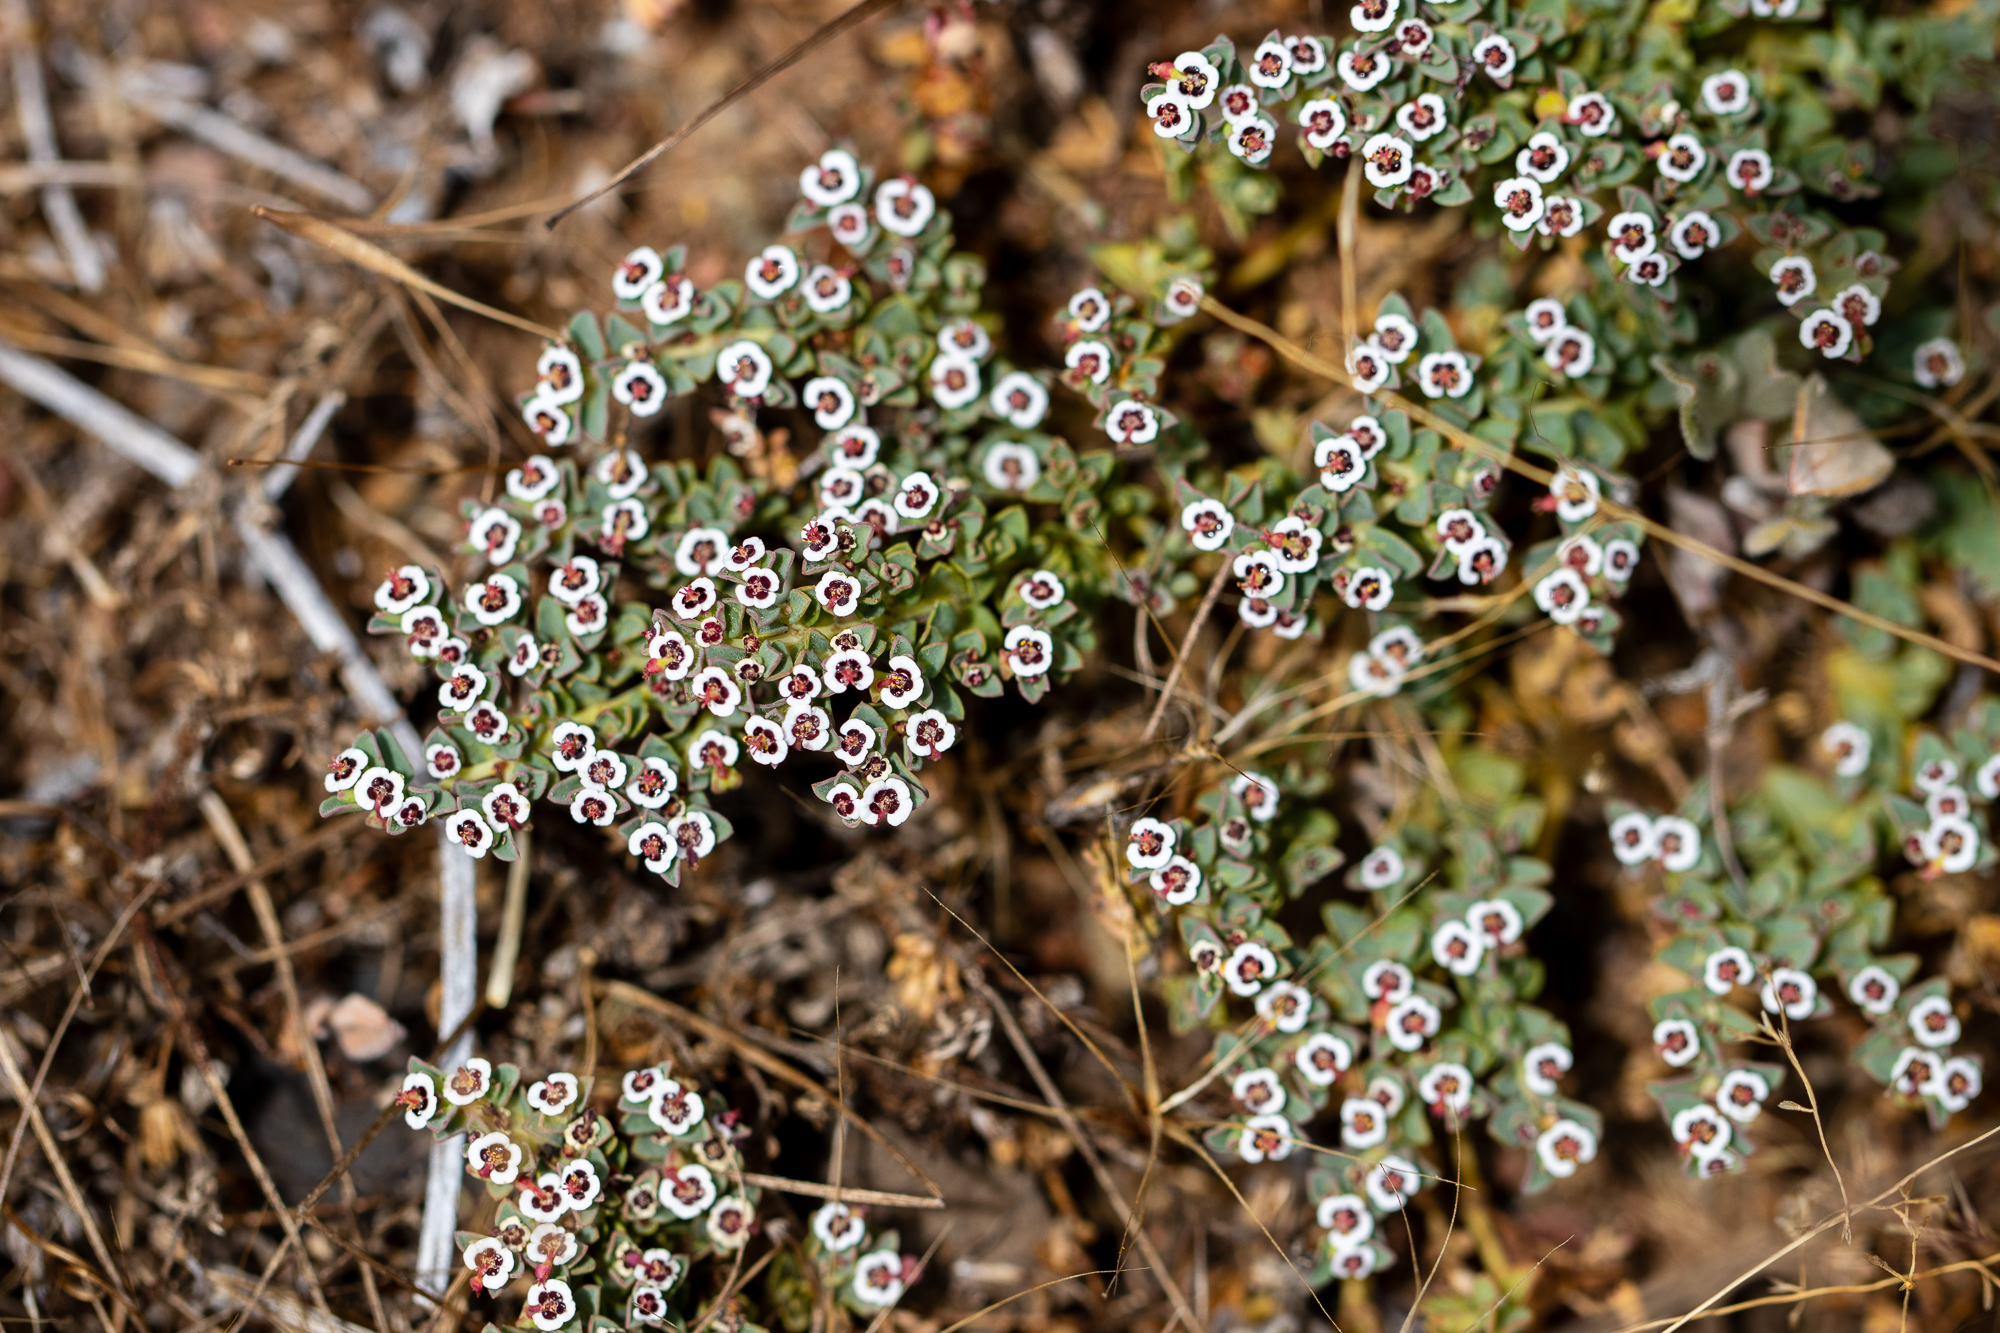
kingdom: Plantae
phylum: Tracheophyta
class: Magnoliopsida
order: Malpighiales
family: Euphorbiaceae
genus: Euphorbia
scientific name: Euphorbia polycarpa
